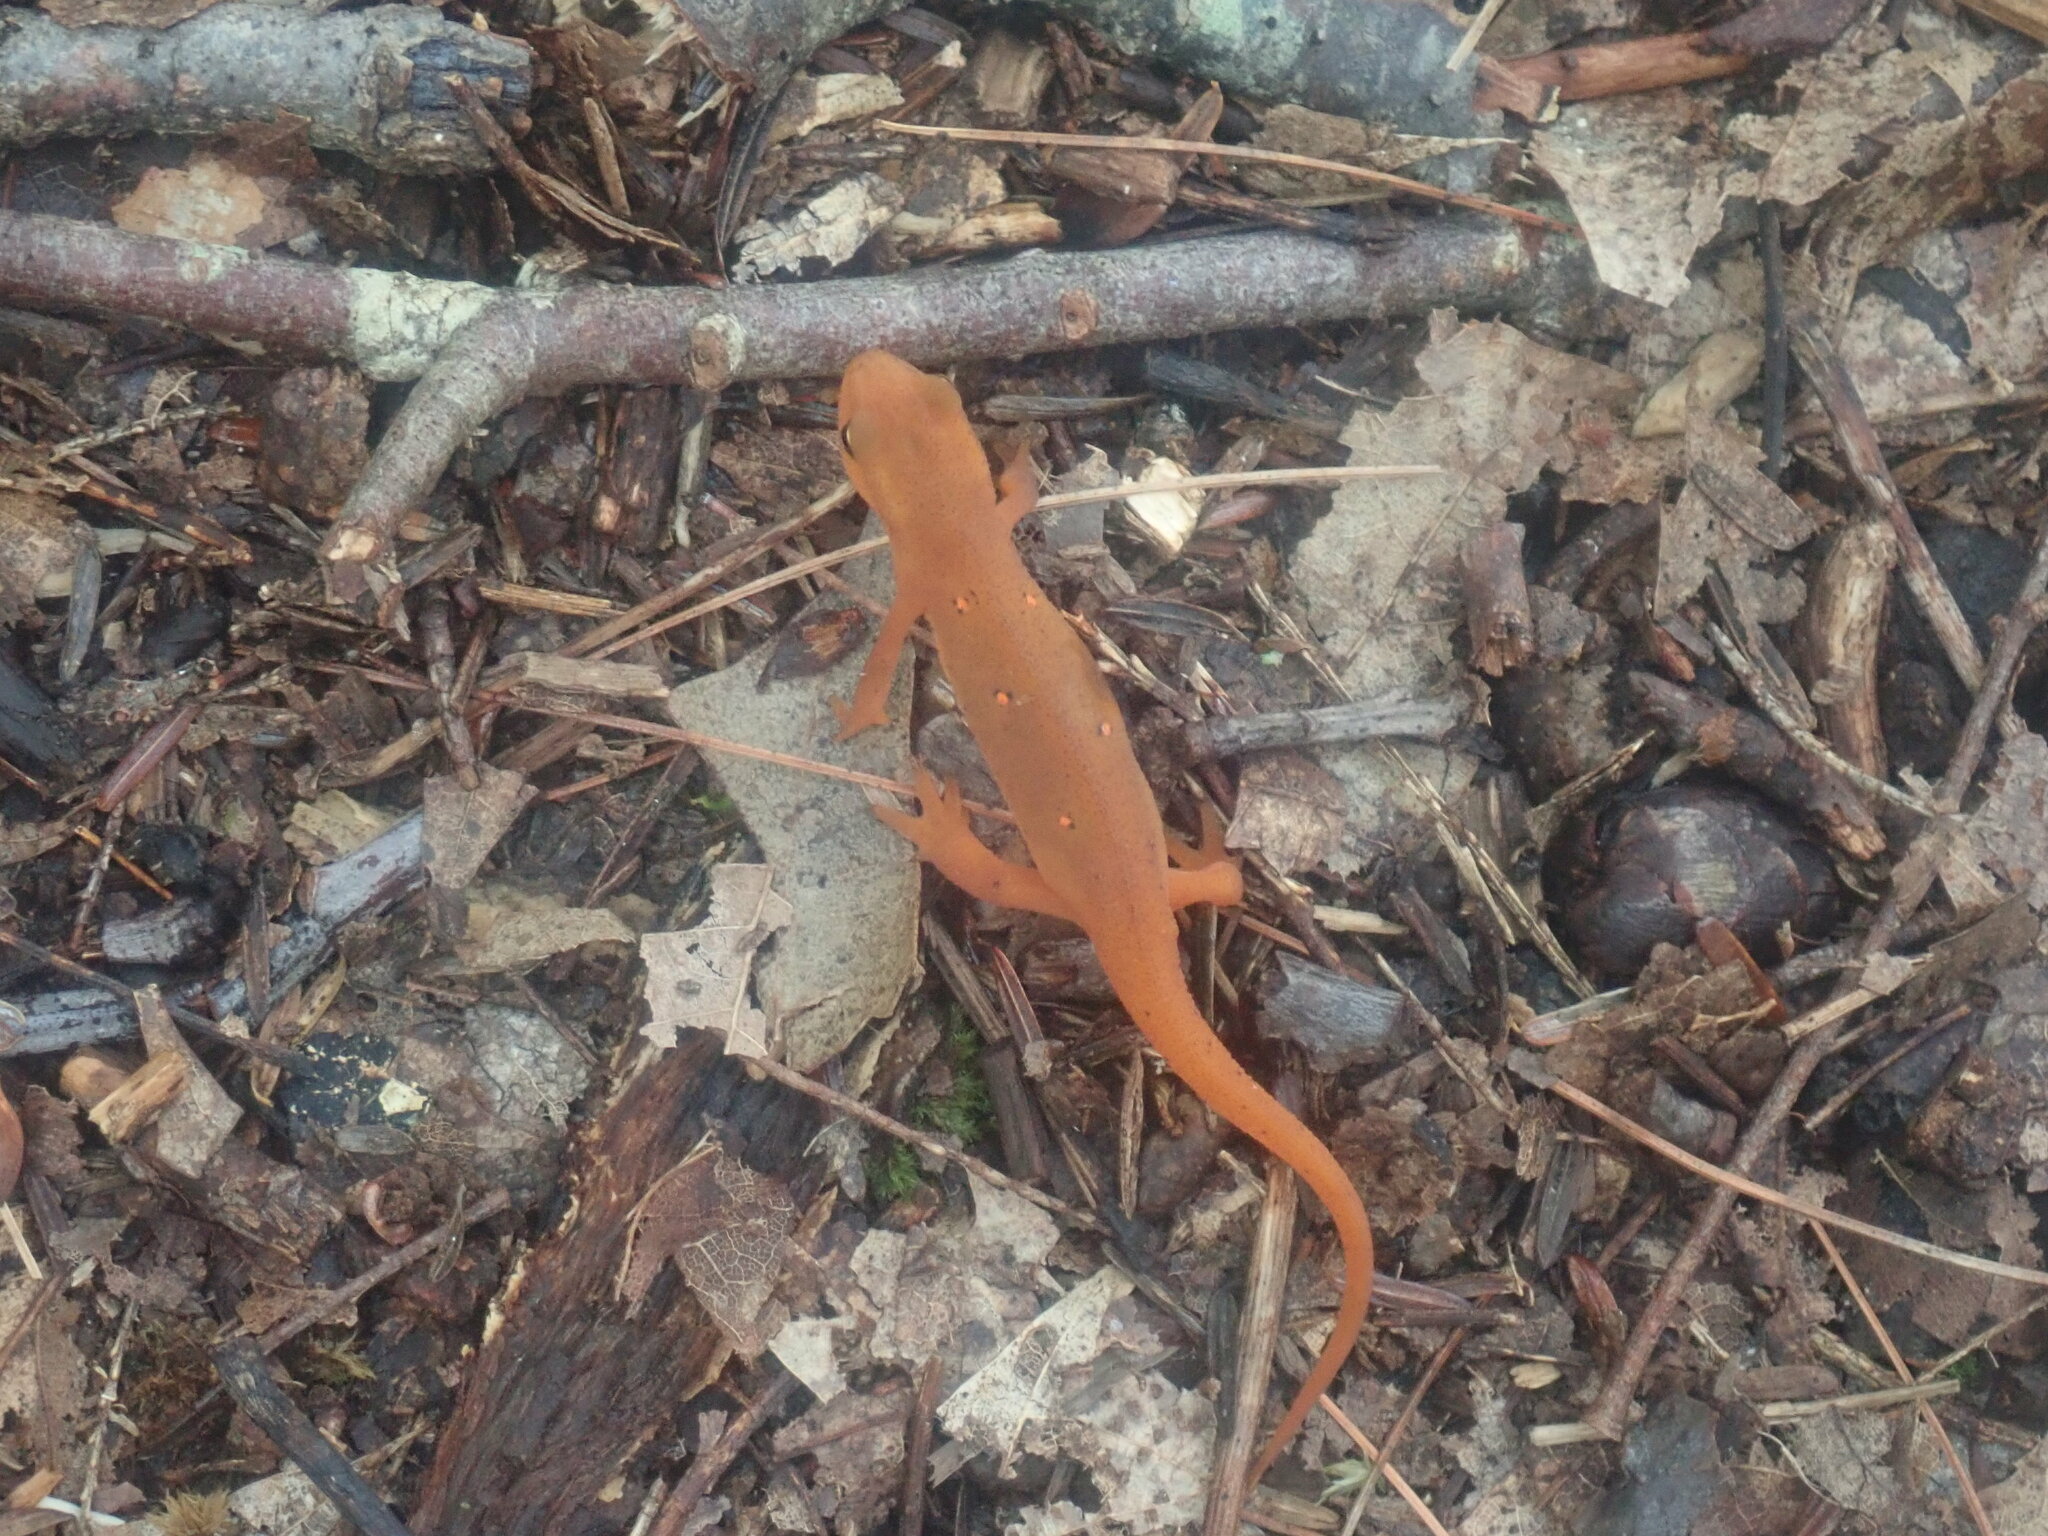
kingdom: Animalia
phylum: Chordata
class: Amphibia
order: Caudata
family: Salamandridae
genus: Notophthalmus
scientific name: Notophthalmus viridescens
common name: Eastern newt
